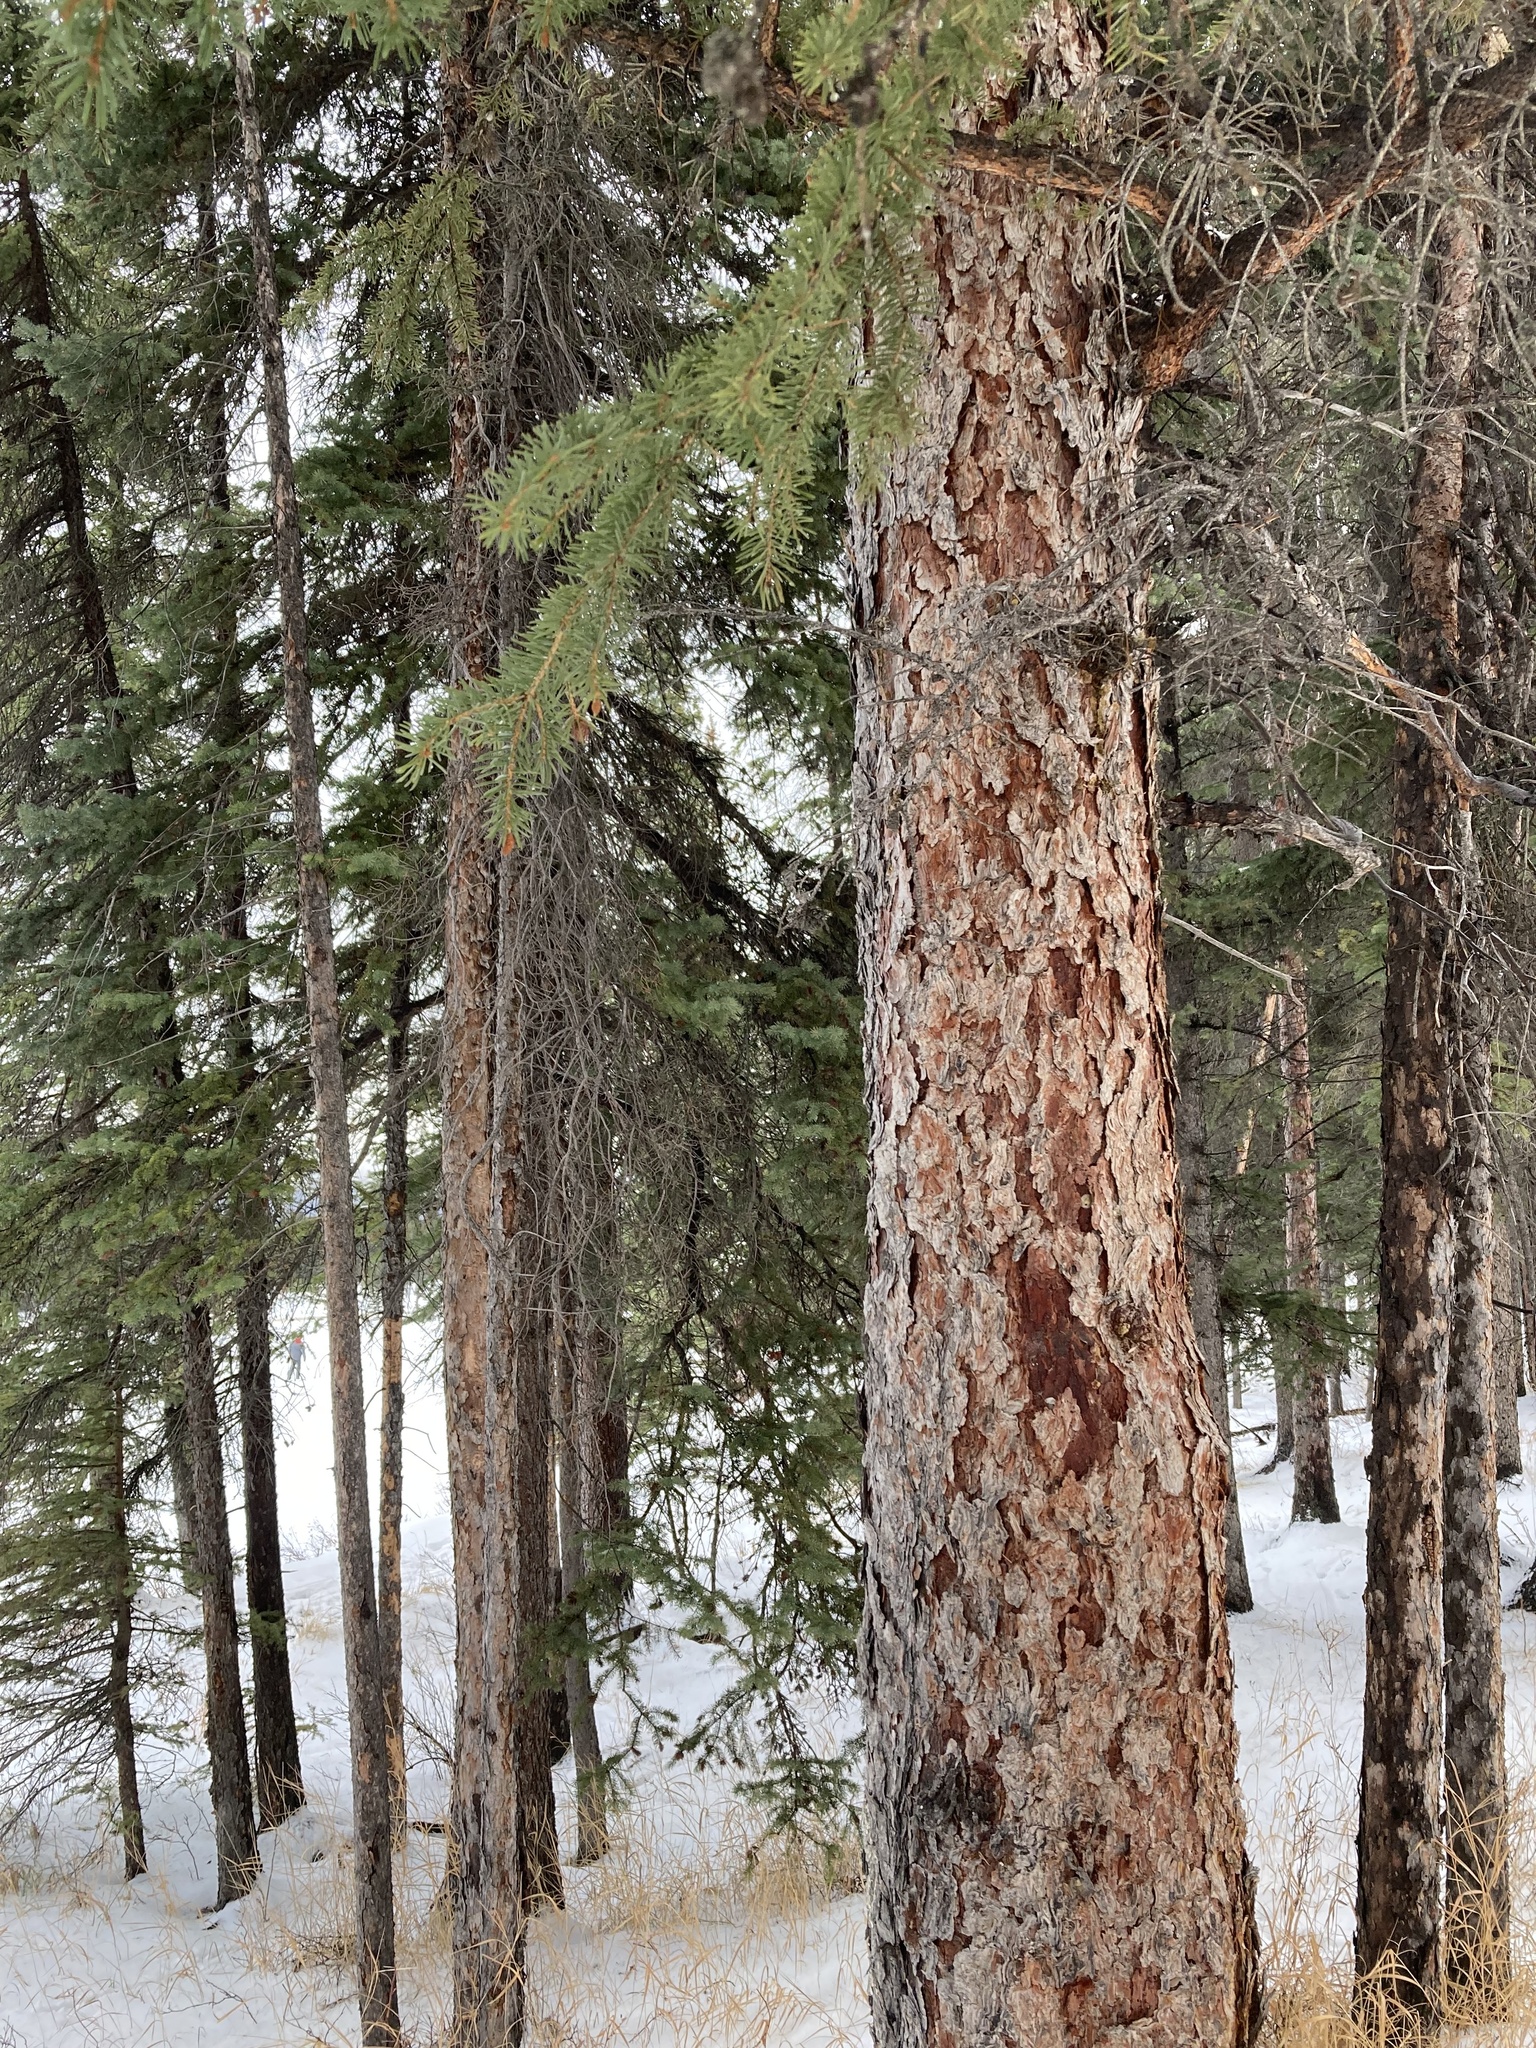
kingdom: Plantae
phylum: Tracheophyta
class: Pinopsida
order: Pinales
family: Pinaceae
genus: Picea
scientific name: Picea glauca
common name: White spruce
